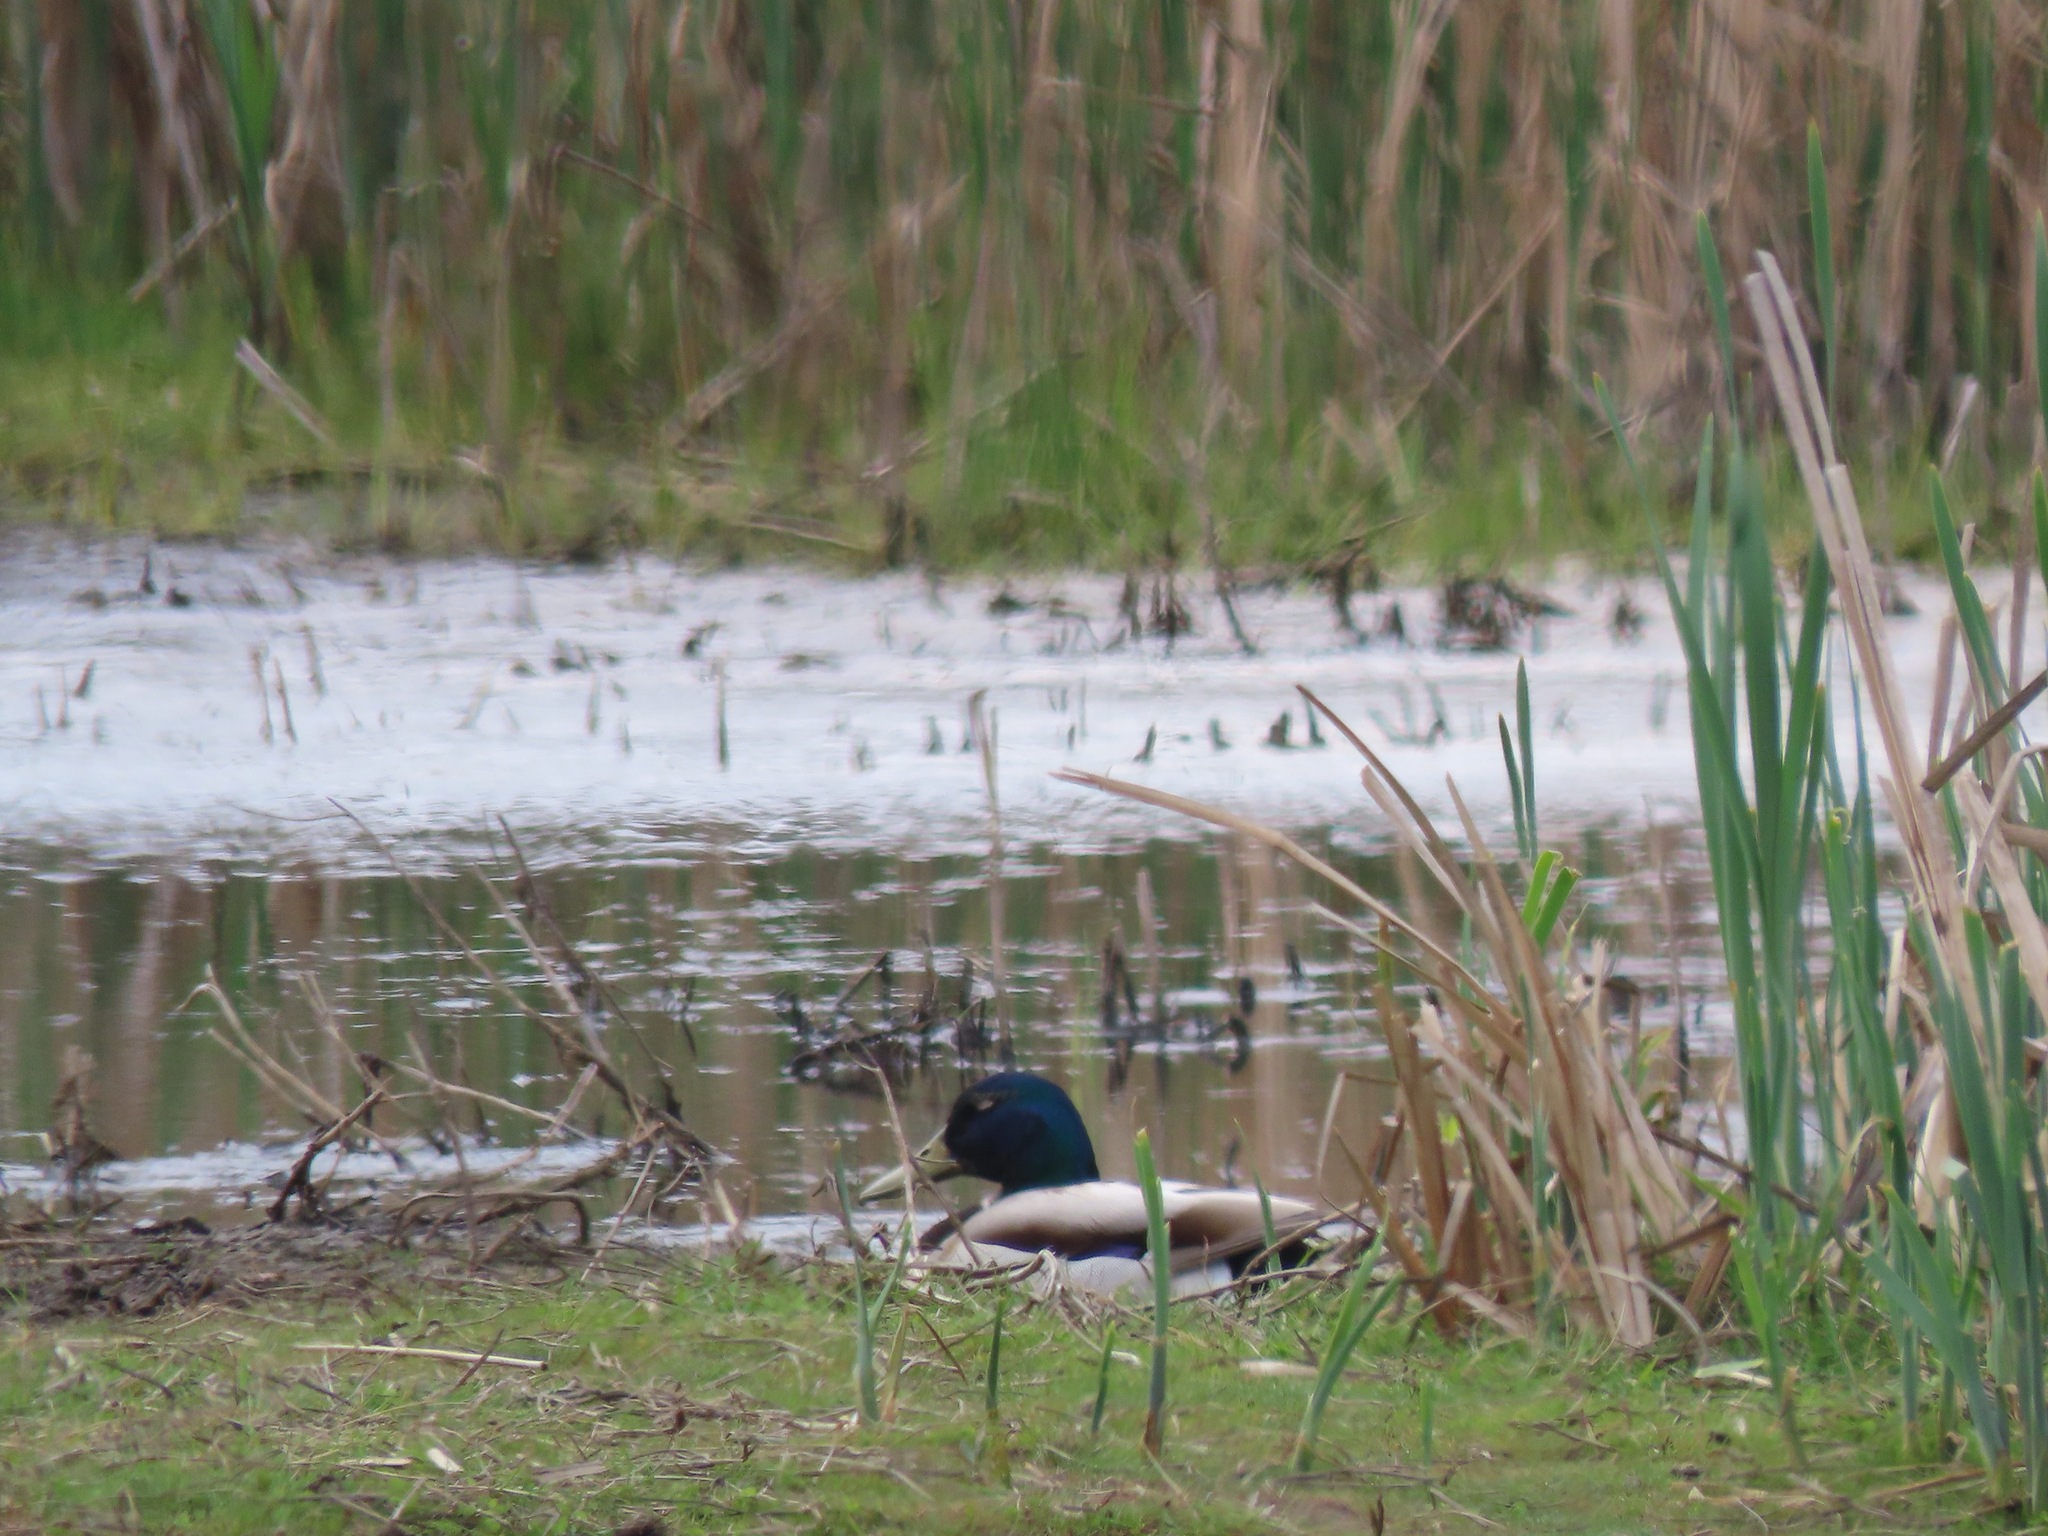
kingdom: Animalia
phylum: Chordata
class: Aves
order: Anseriformes
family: Anatidae
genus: Anas
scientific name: Anas platyrhynchos
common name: Mallard
